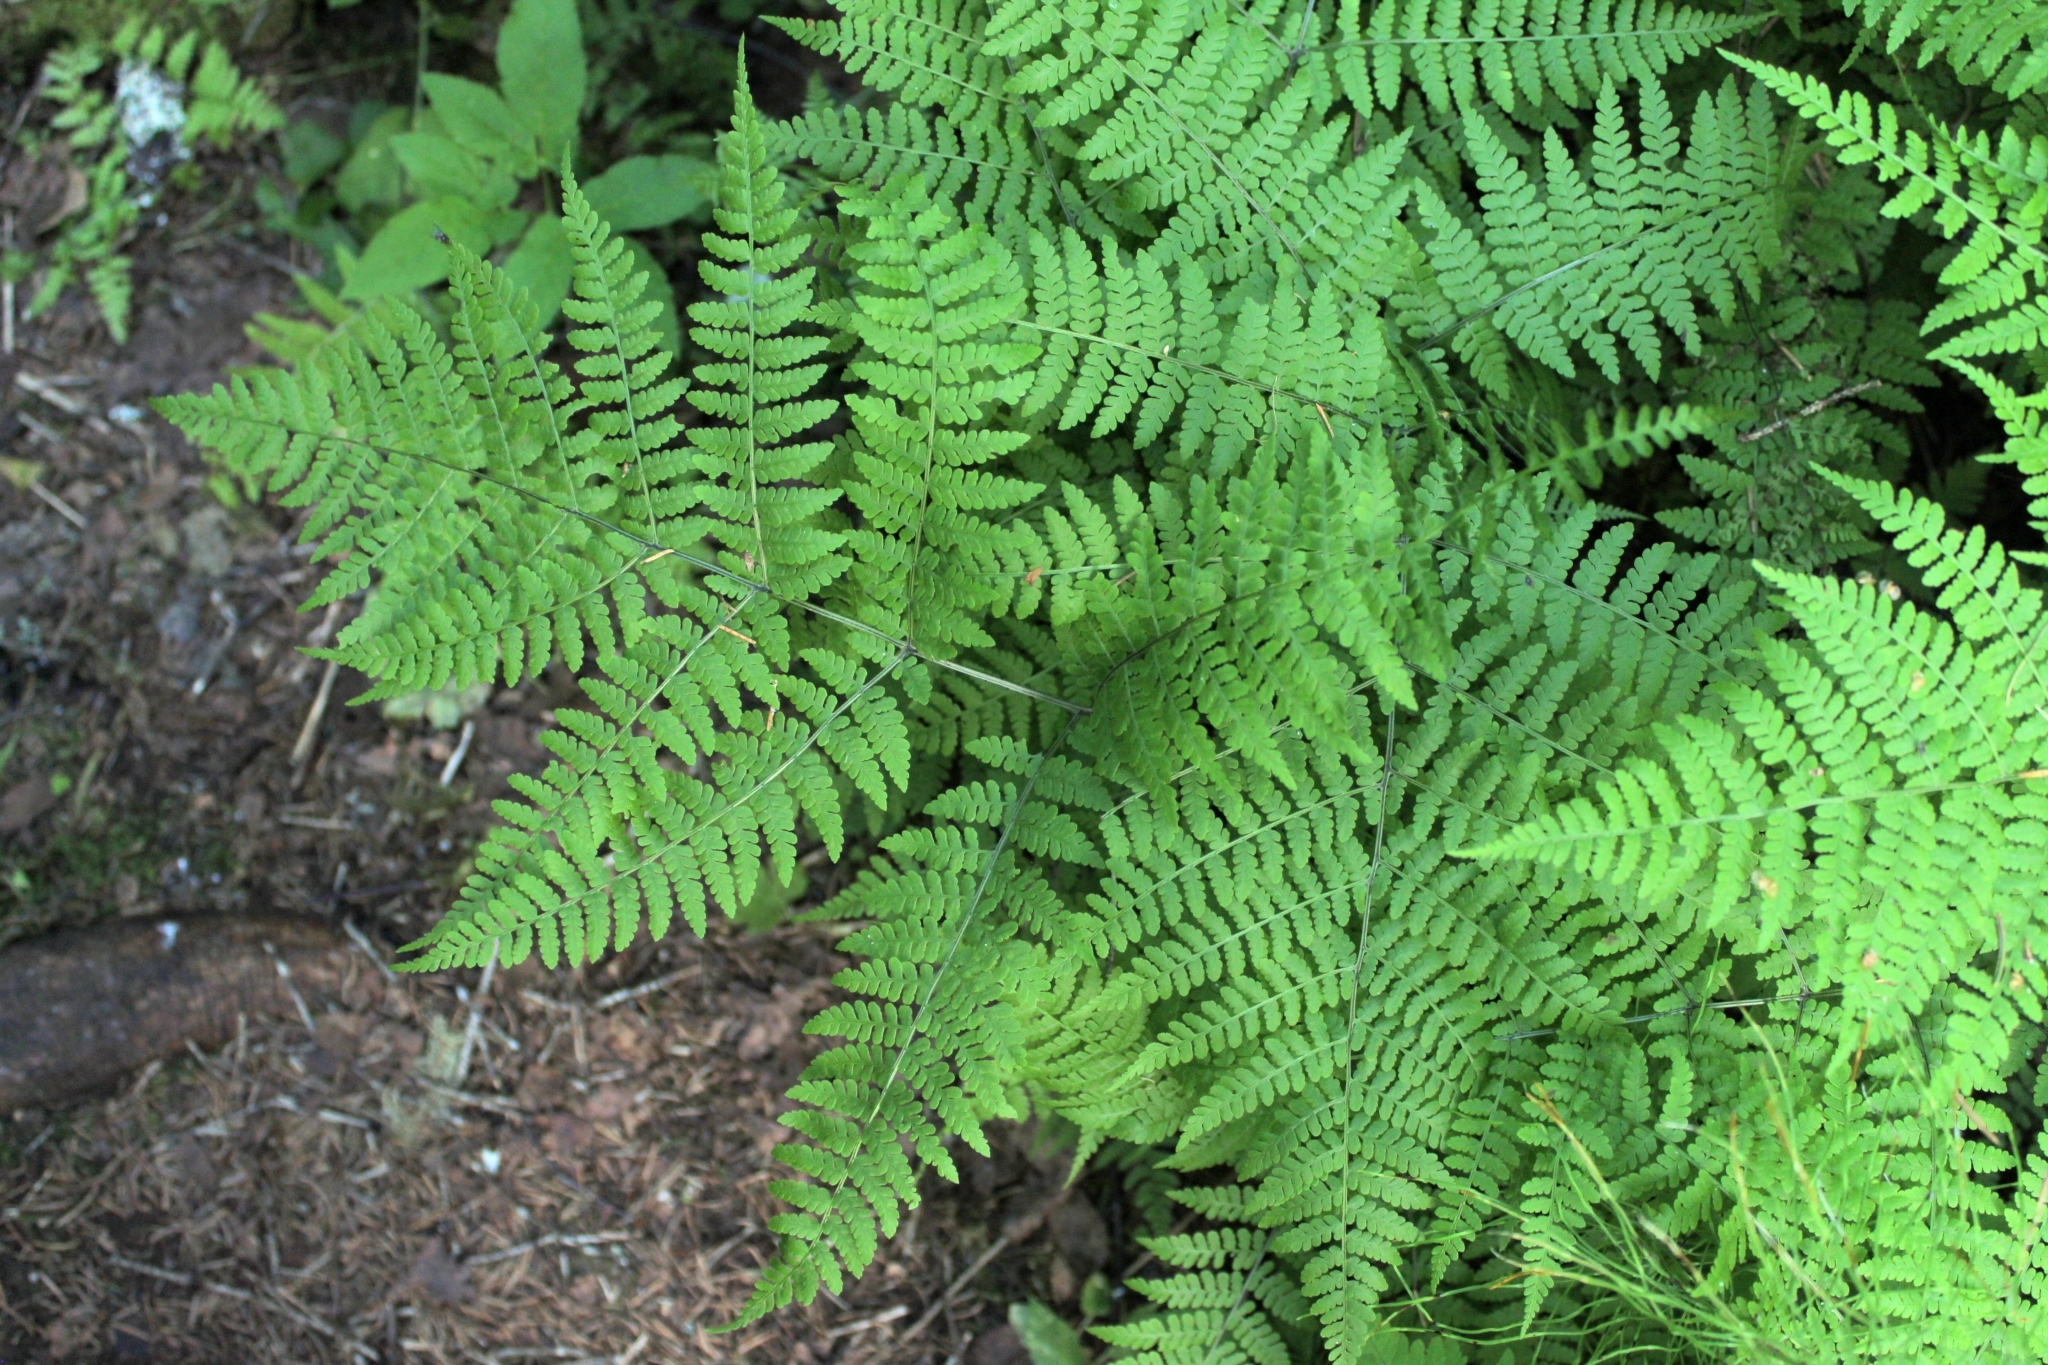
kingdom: Plantae
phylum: Tracheophyta
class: Polypodiopsida
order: Polypodiales
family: Athyriaceae
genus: Diplazium
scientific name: Diplazium sibiricum
